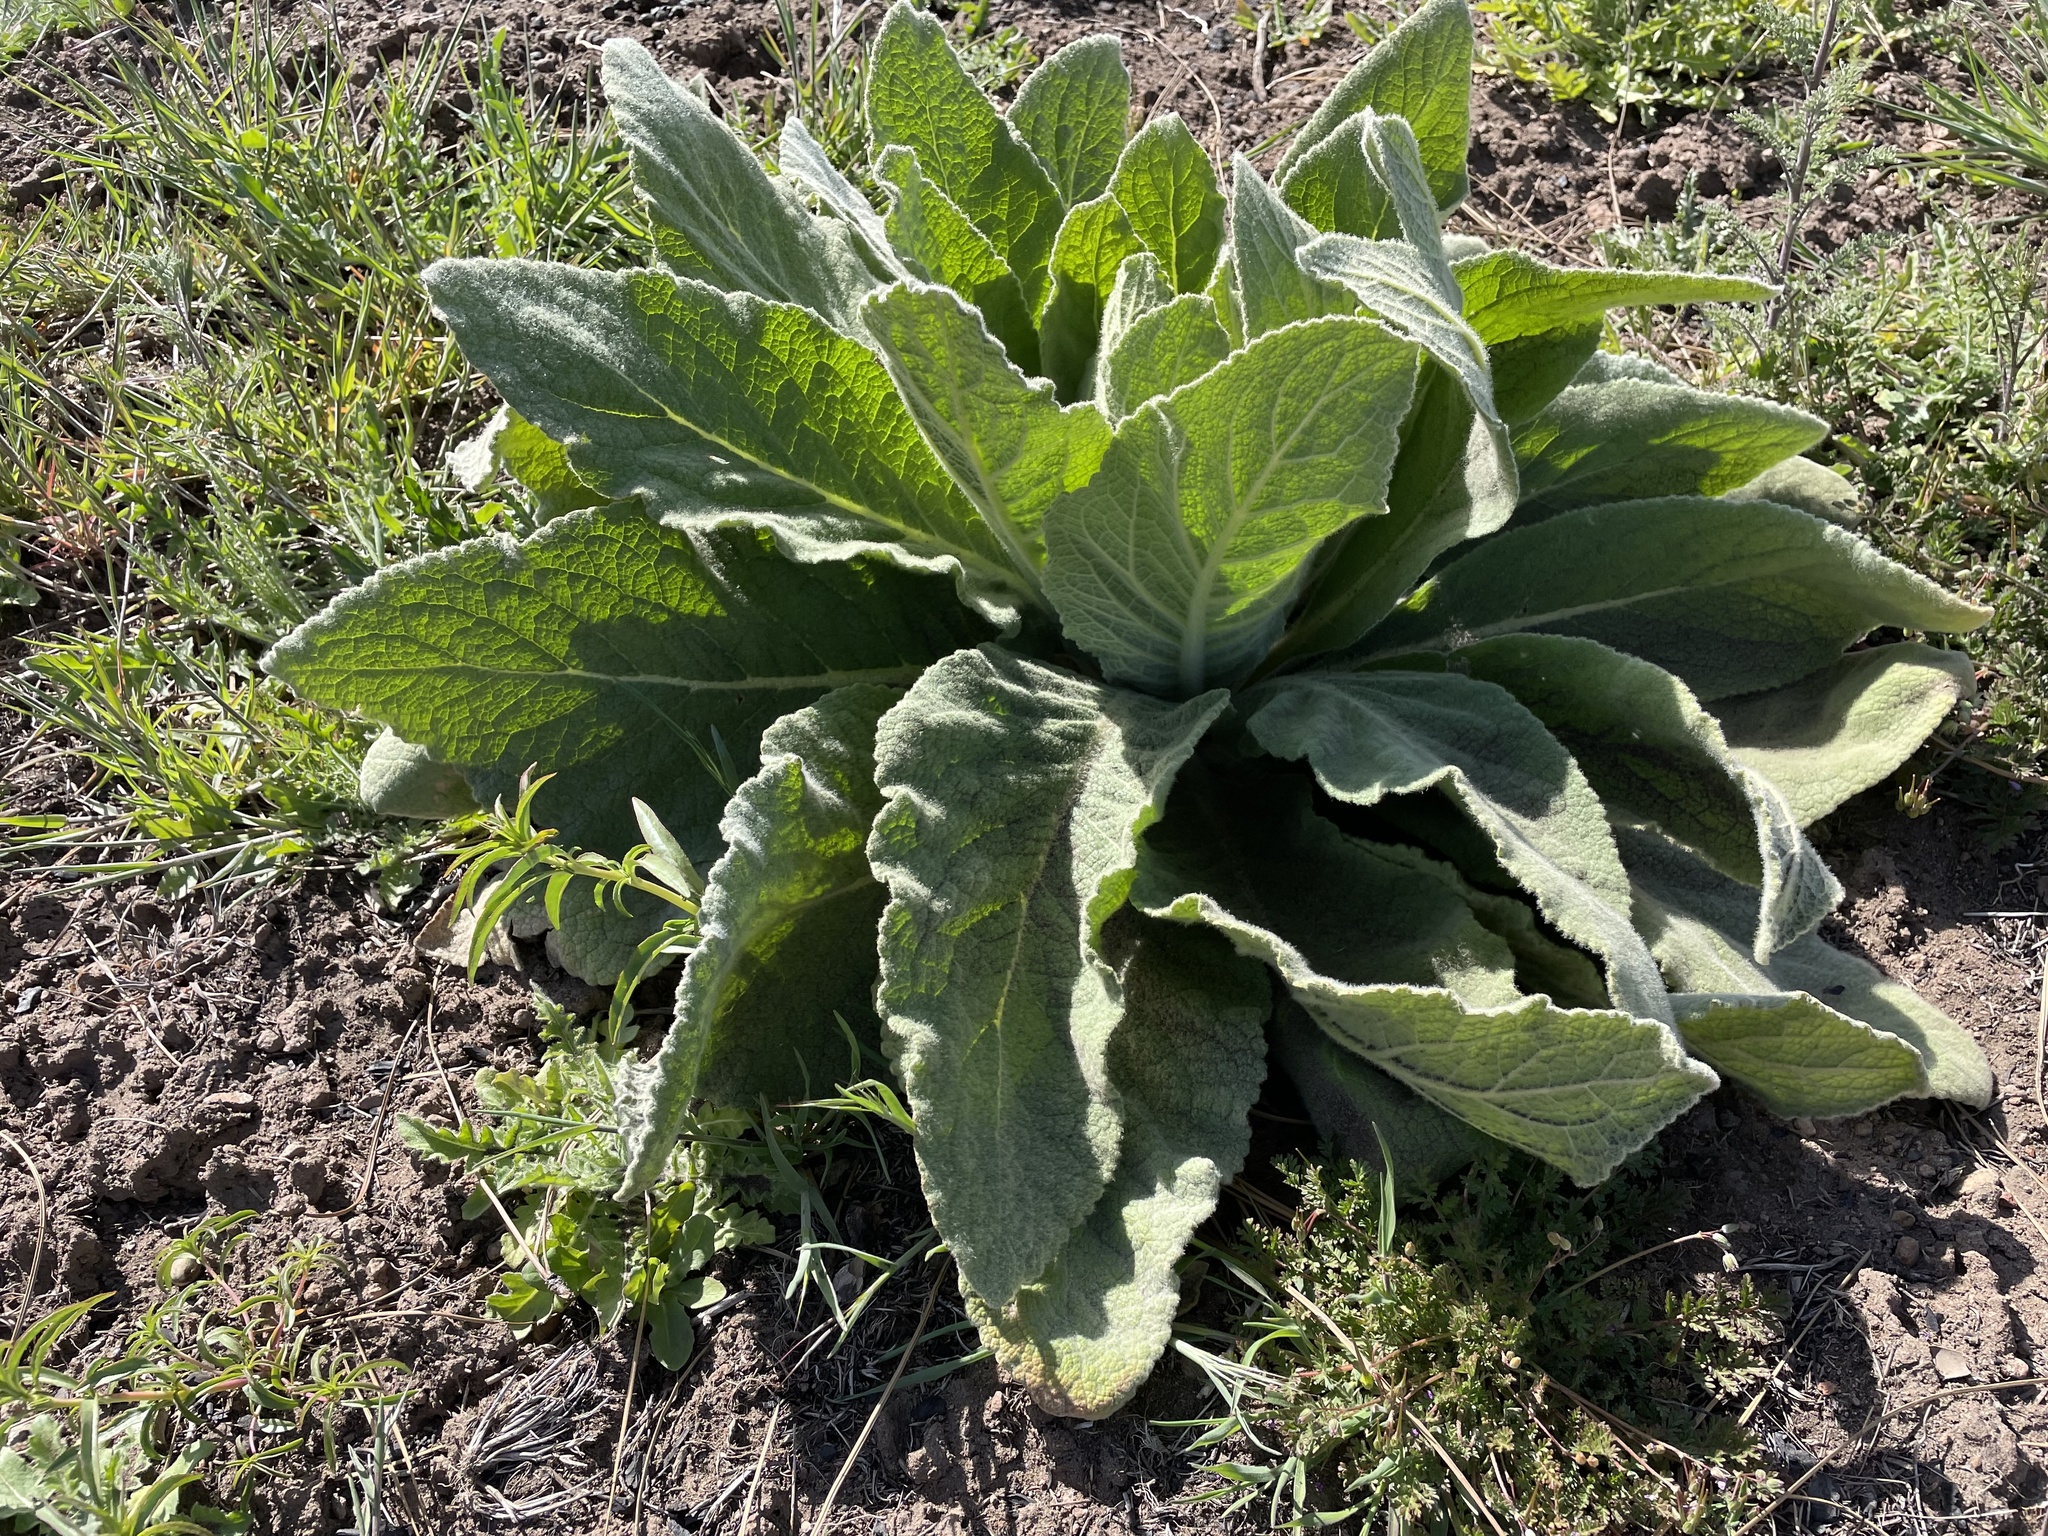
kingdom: Plantae
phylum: Tracheophyta
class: Magnoliopsida
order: Lamiales
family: Scrophulariaceae
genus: Verbascum
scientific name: Verbascum thapsus
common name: Common mullein
